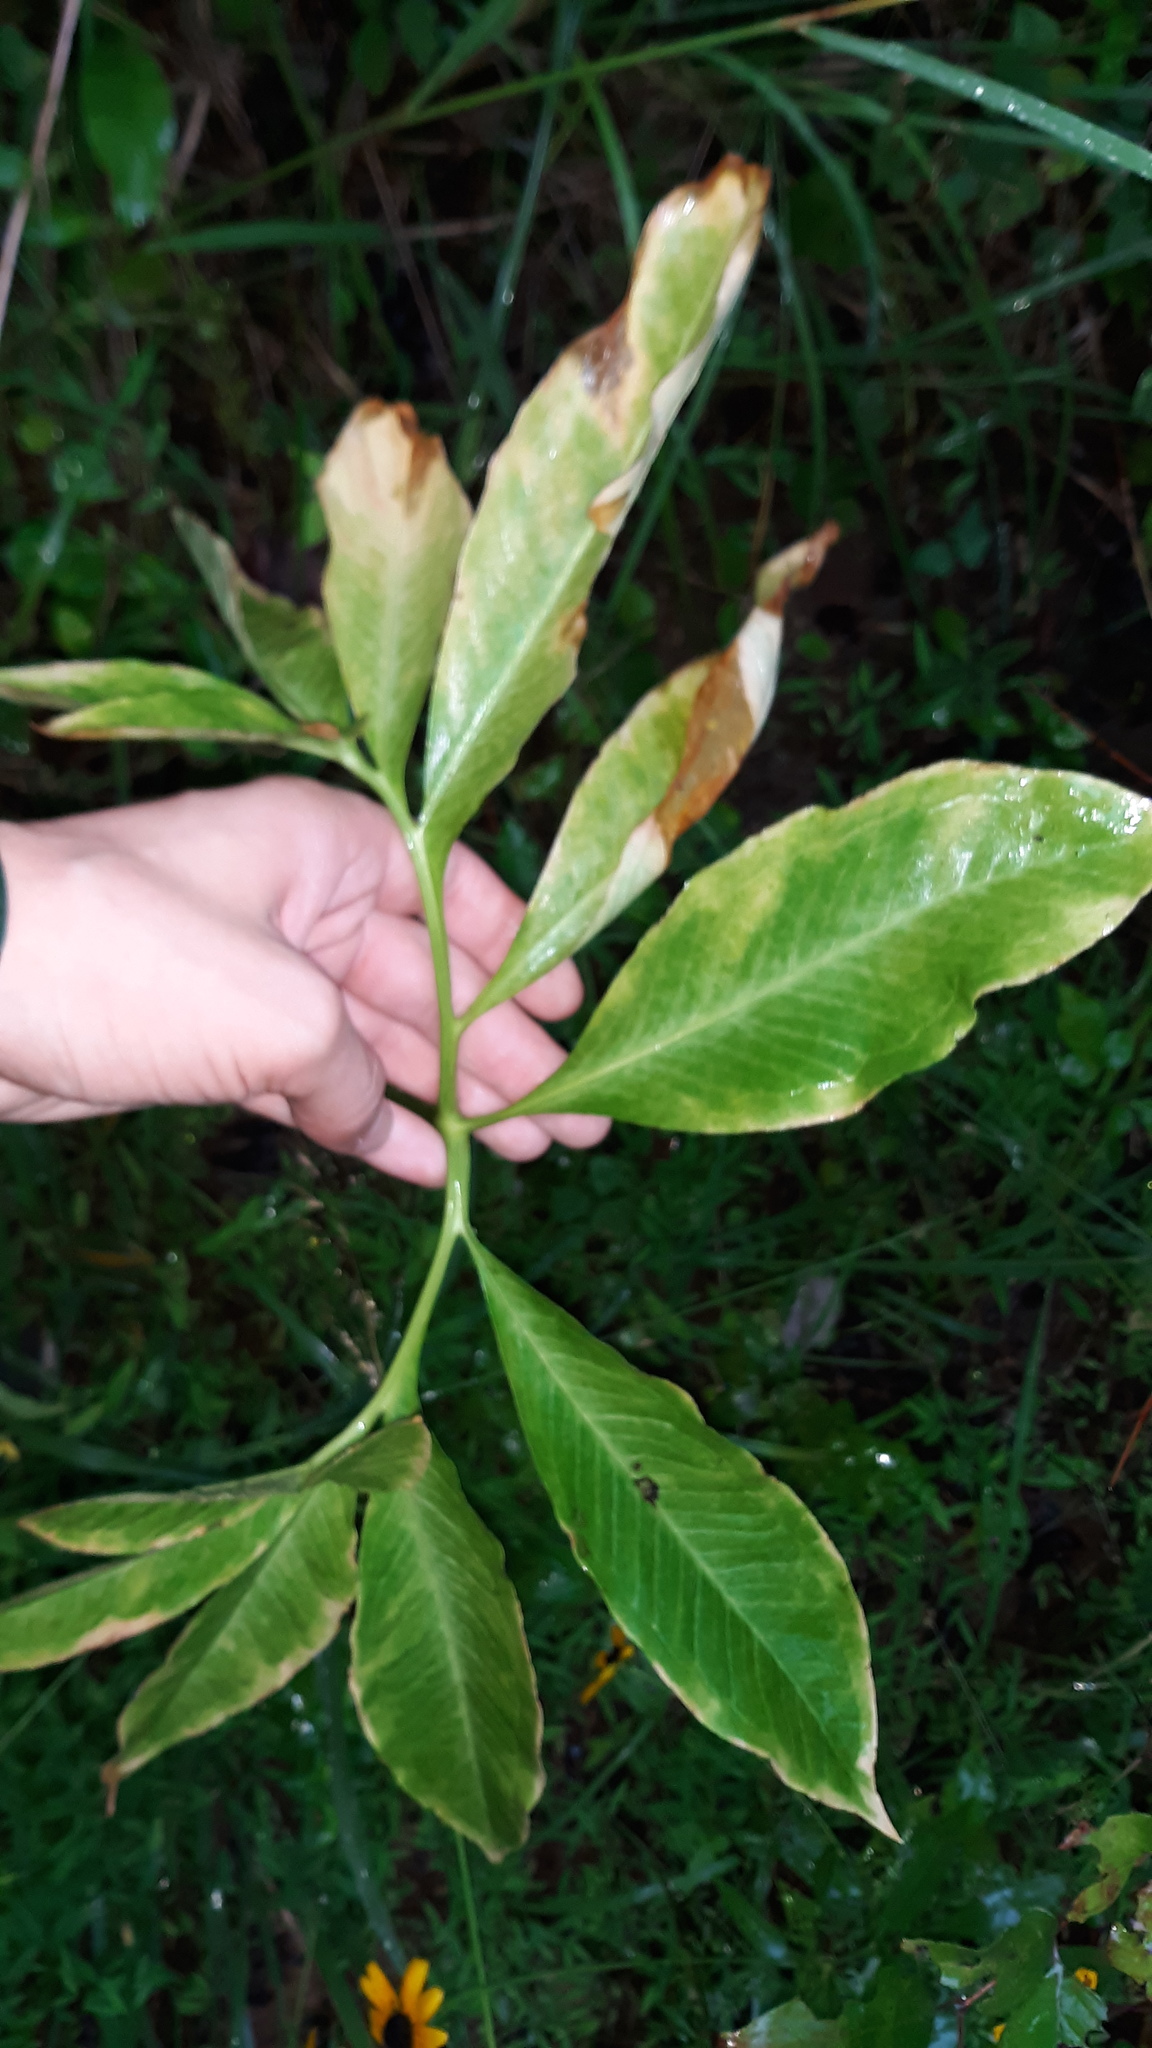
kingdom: Plantae
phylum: Tracheophyta
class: Liliopsida
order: Alismatales
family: Araceae
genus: Arisaema
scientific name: Arisaema dracontium
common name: Dragon-arum
